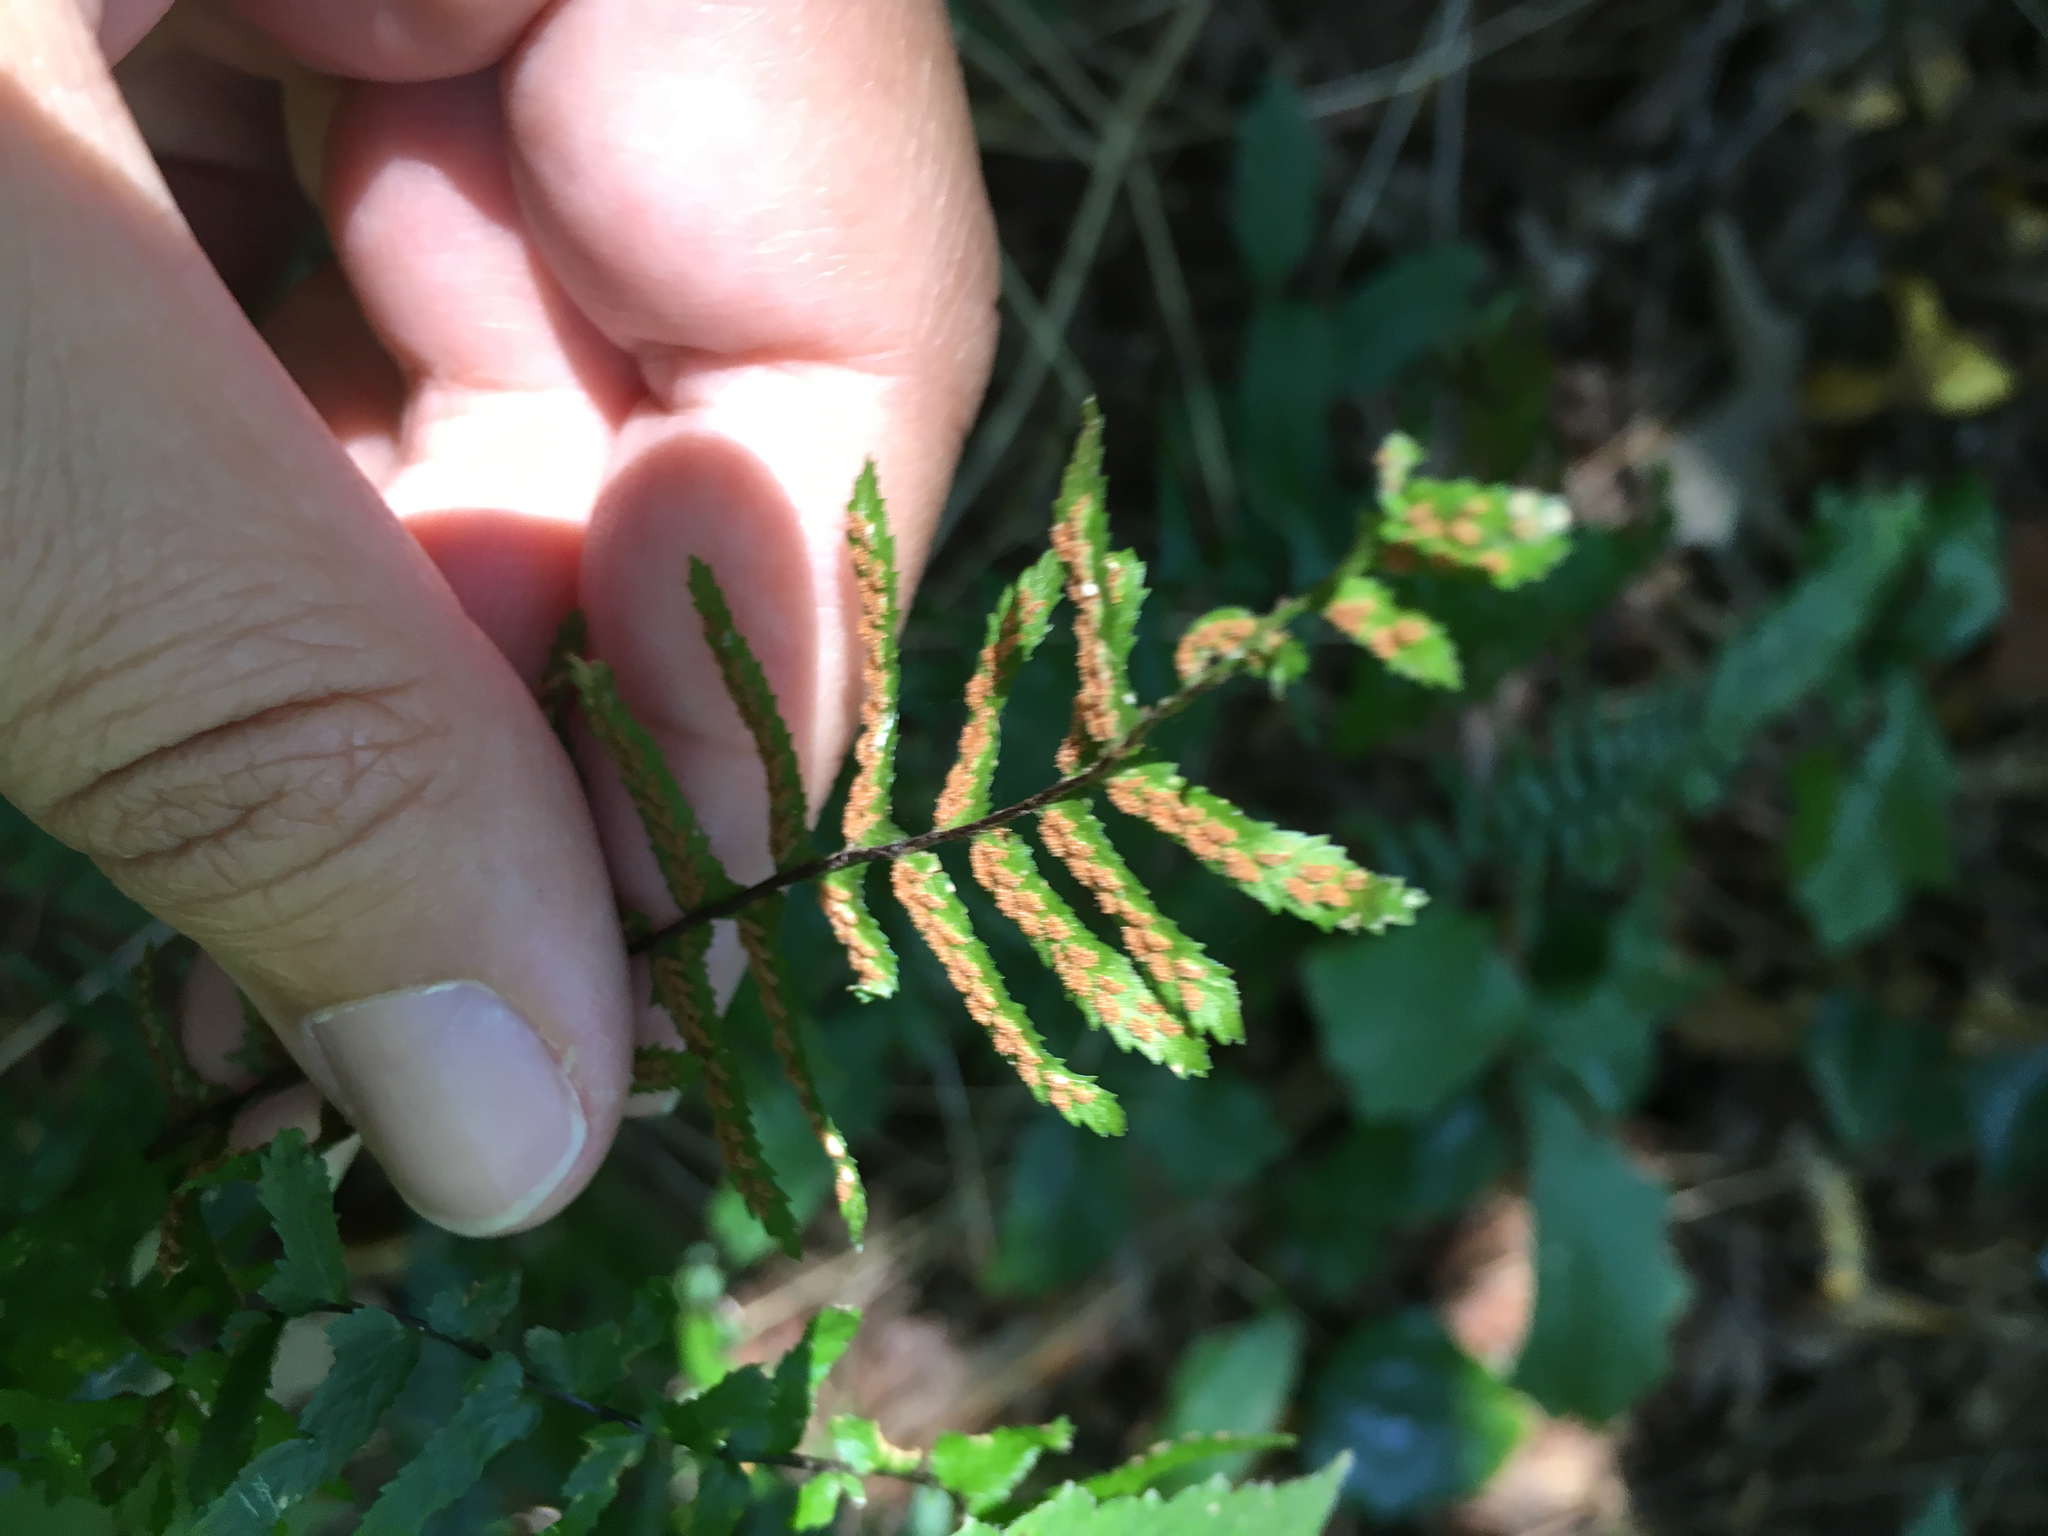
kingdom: Plantae
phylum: Tracheophyta
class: Polypodiopsida
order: Polypodiales
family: Aspleniaceae
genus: Asplenium
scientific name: Asplenium platyneuron
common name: Ebony spleenwort
